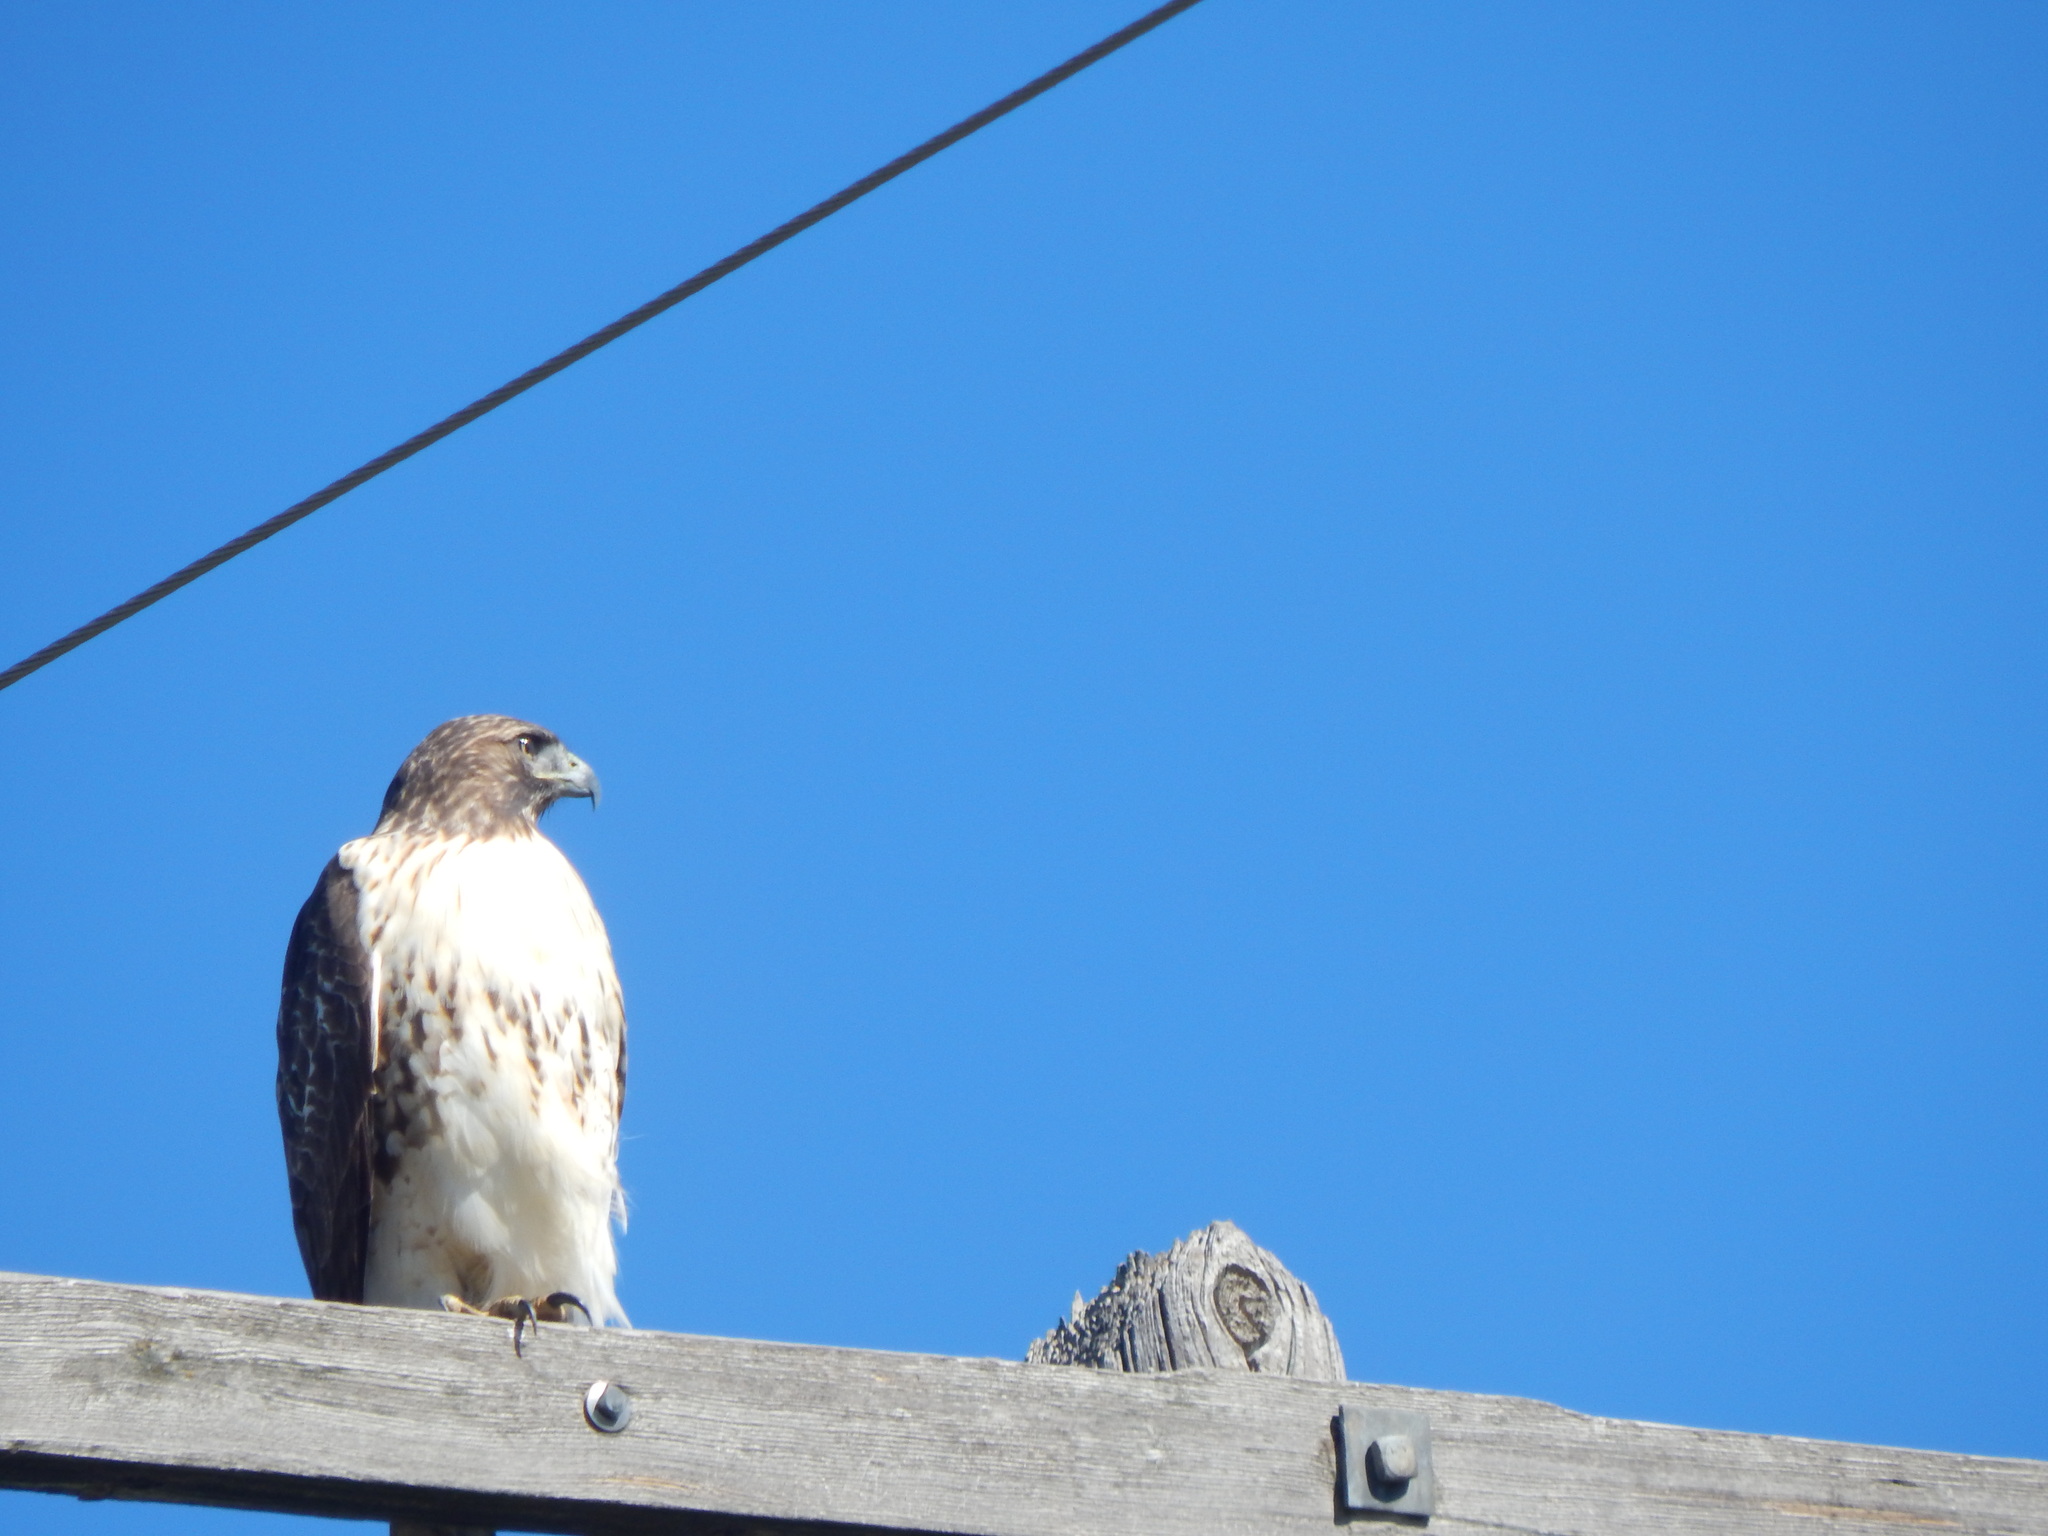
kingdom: Animalia
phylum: Chordata
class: Aves
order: Accipitriformes
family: Accipitridae
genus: Buteo
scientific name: Buteo jamaicensis
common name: Red-tailed hawk
